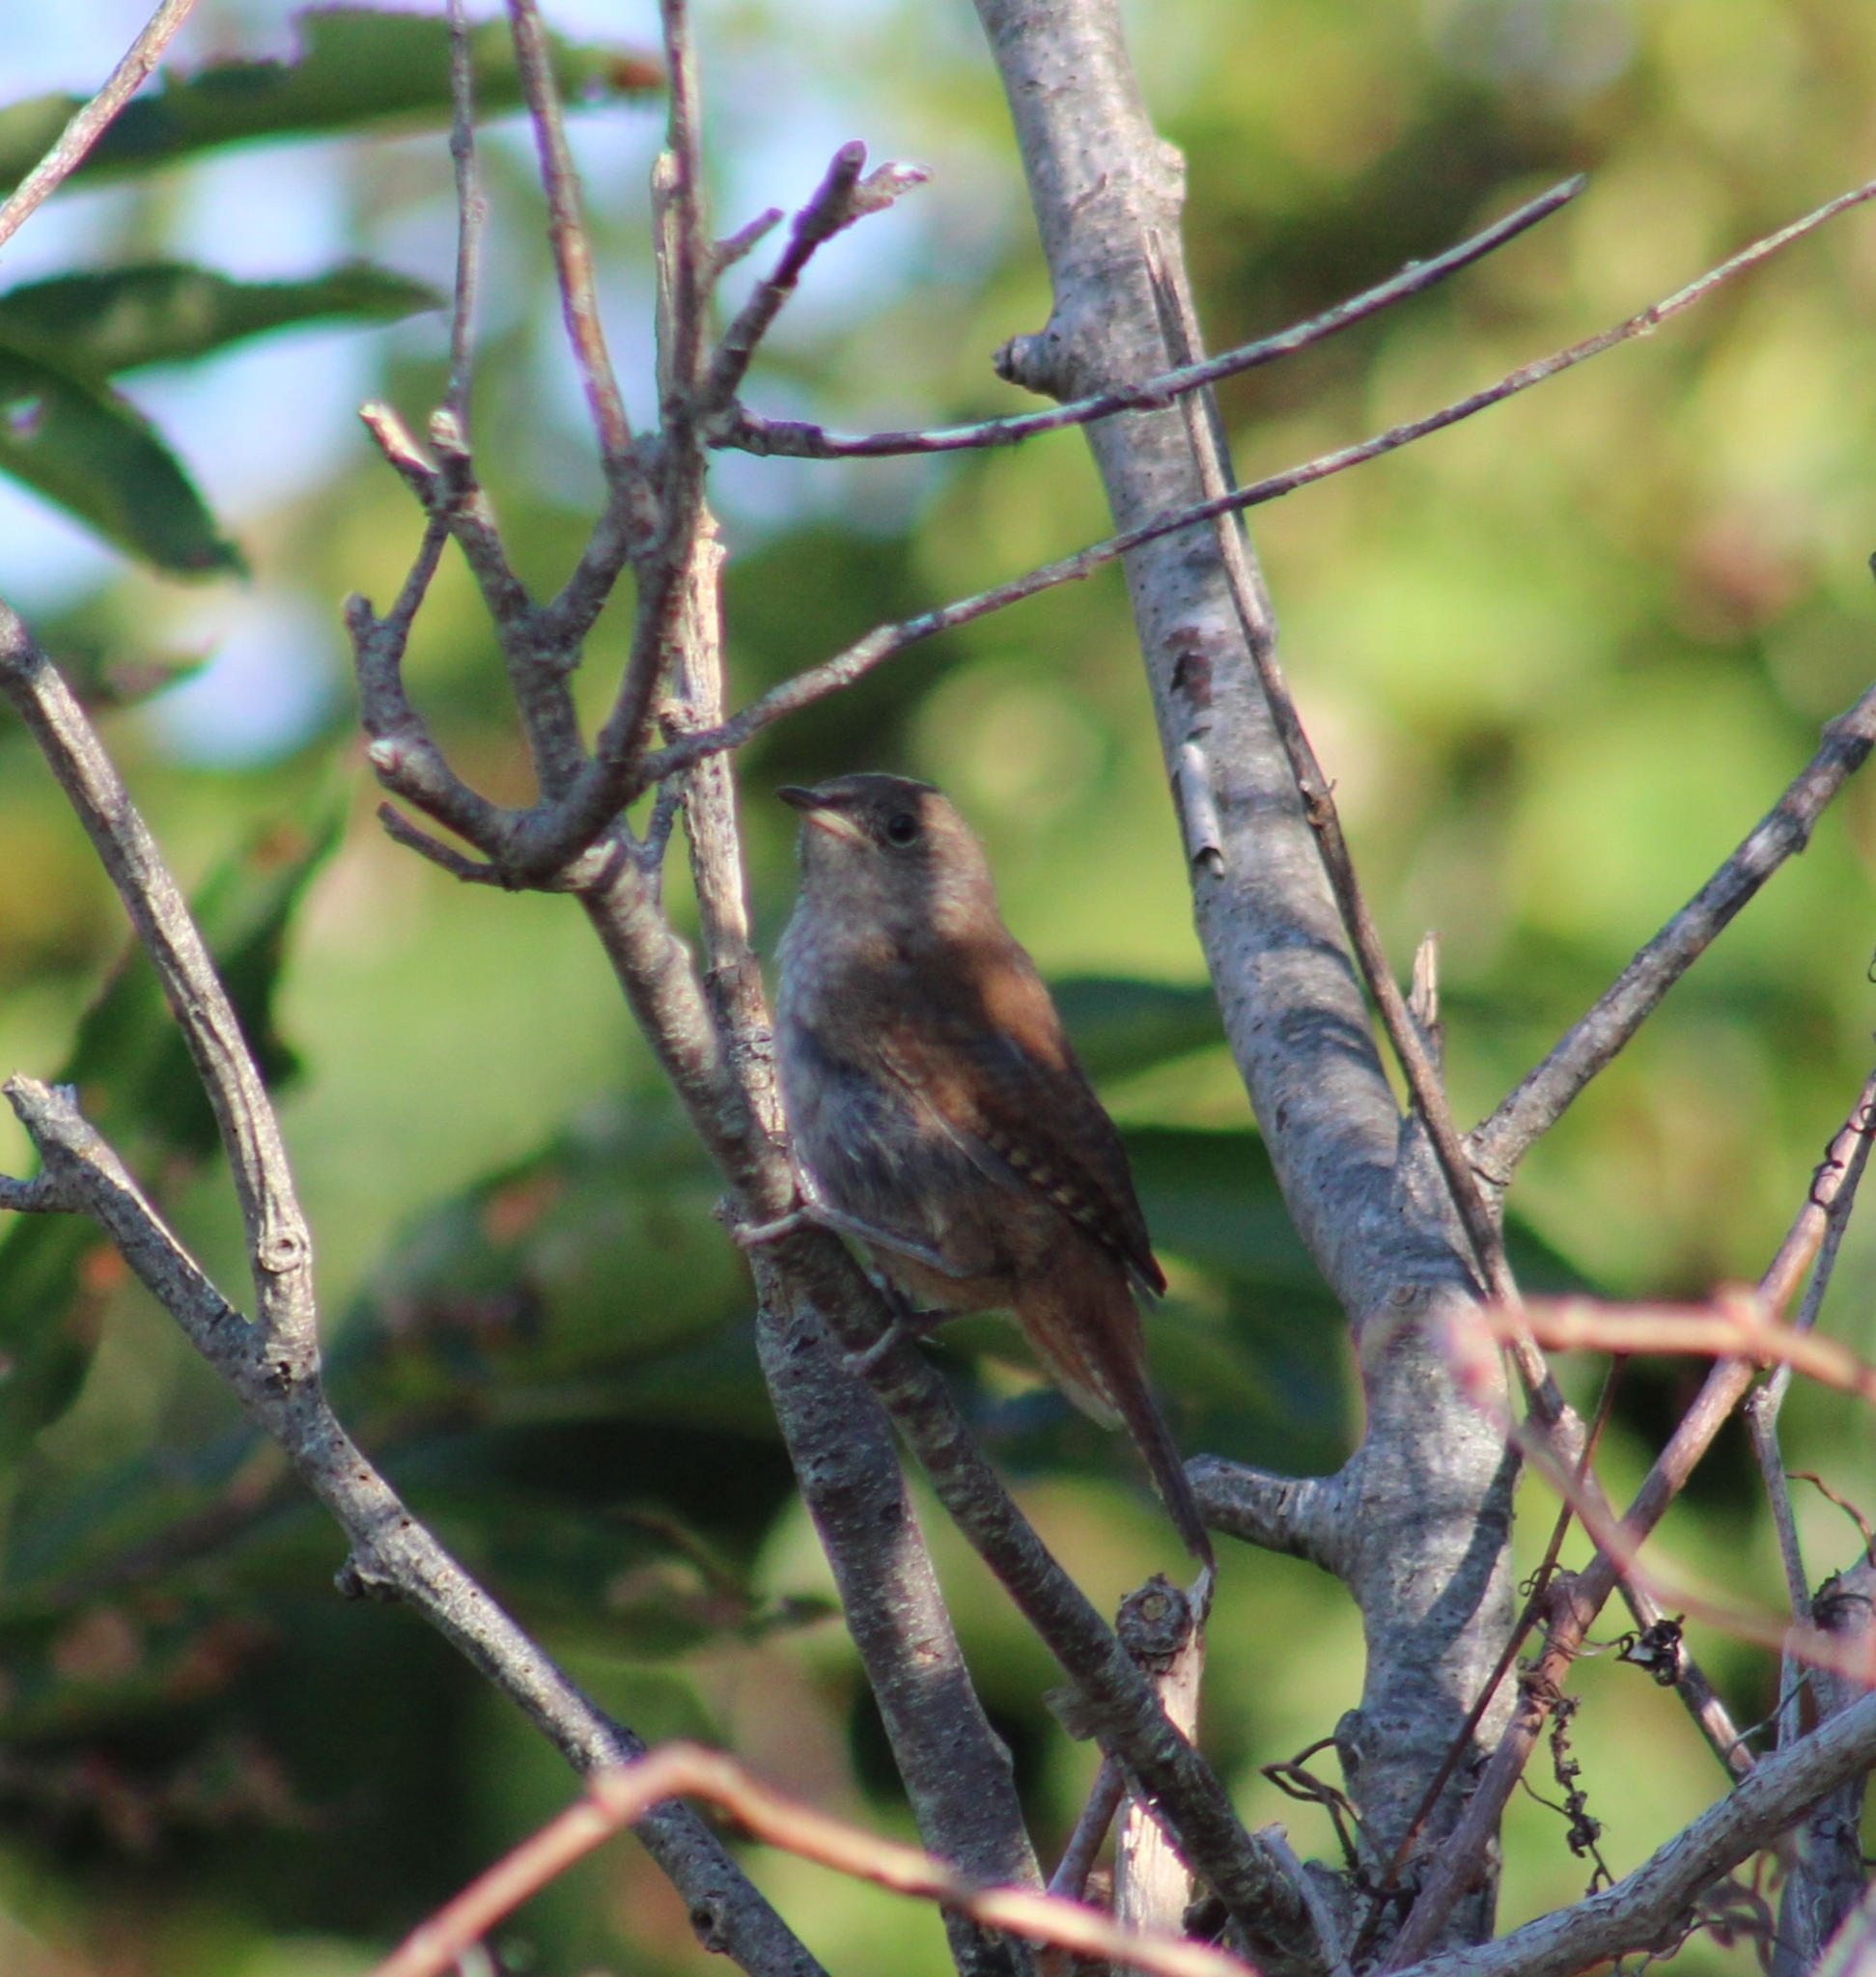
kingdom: Animalia
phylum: Chordata
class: Aves
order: Passeriformes
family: Troglodytidae
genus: Troglodytes
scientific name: Troglodytes aedon
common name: House wren
